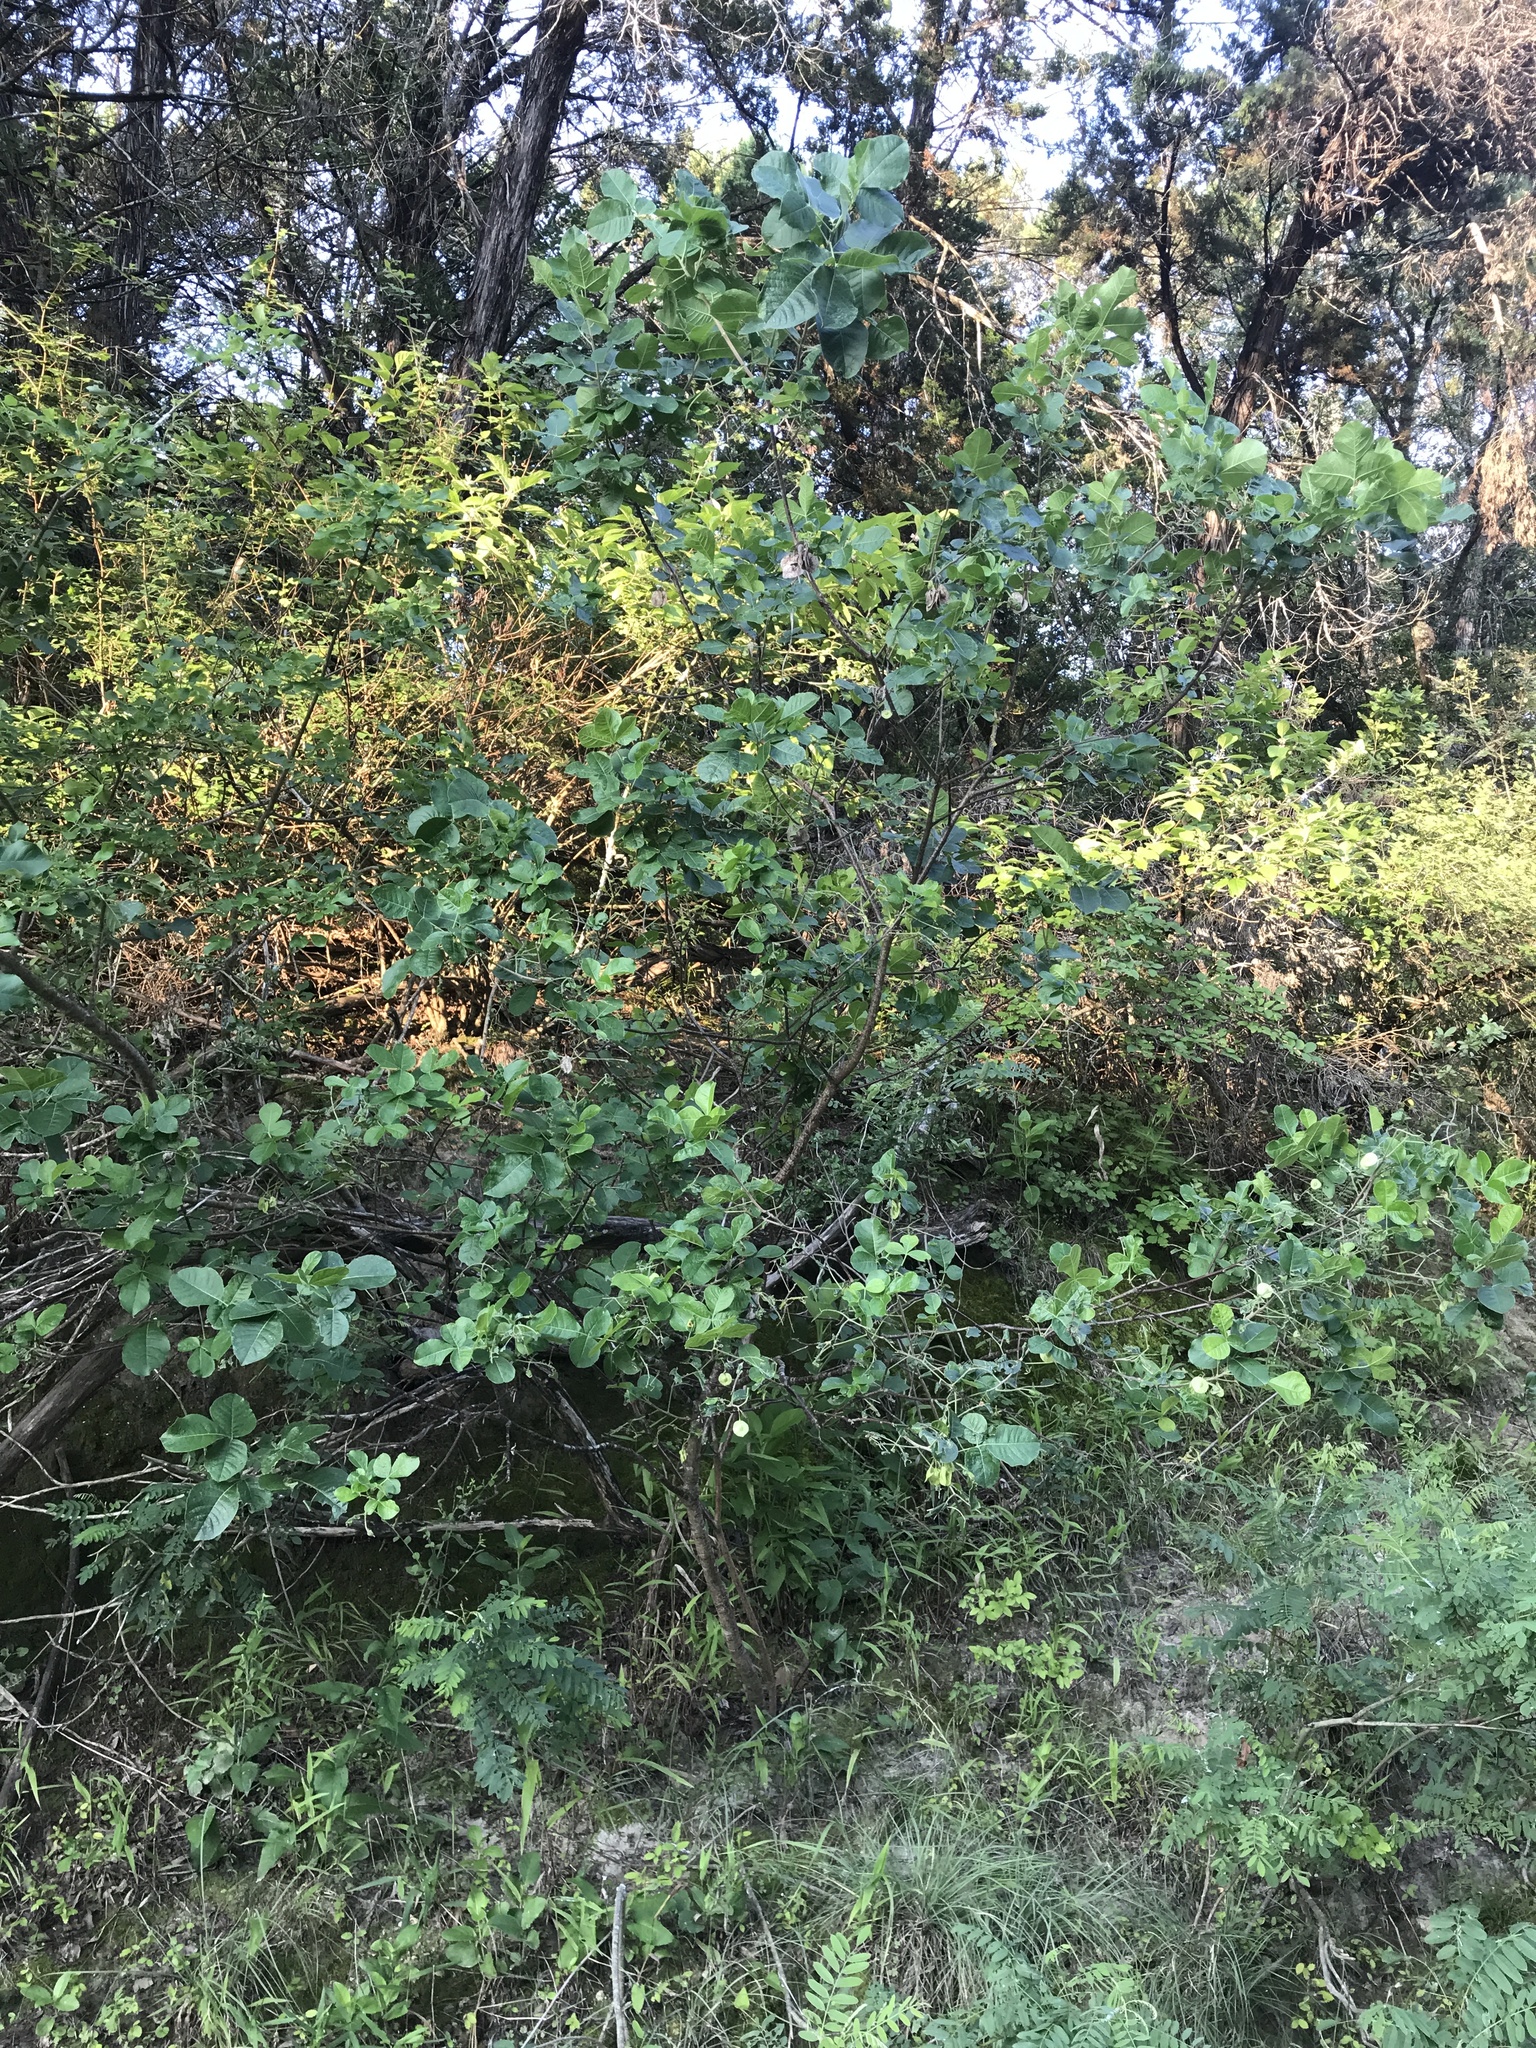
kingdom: Plantae
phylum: Tracheophyta
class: Magnoliopsida
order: Sapindales
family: Rutaceae
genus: Ptelea
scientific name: Ptelea trifoliata
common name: Common hop-tree
